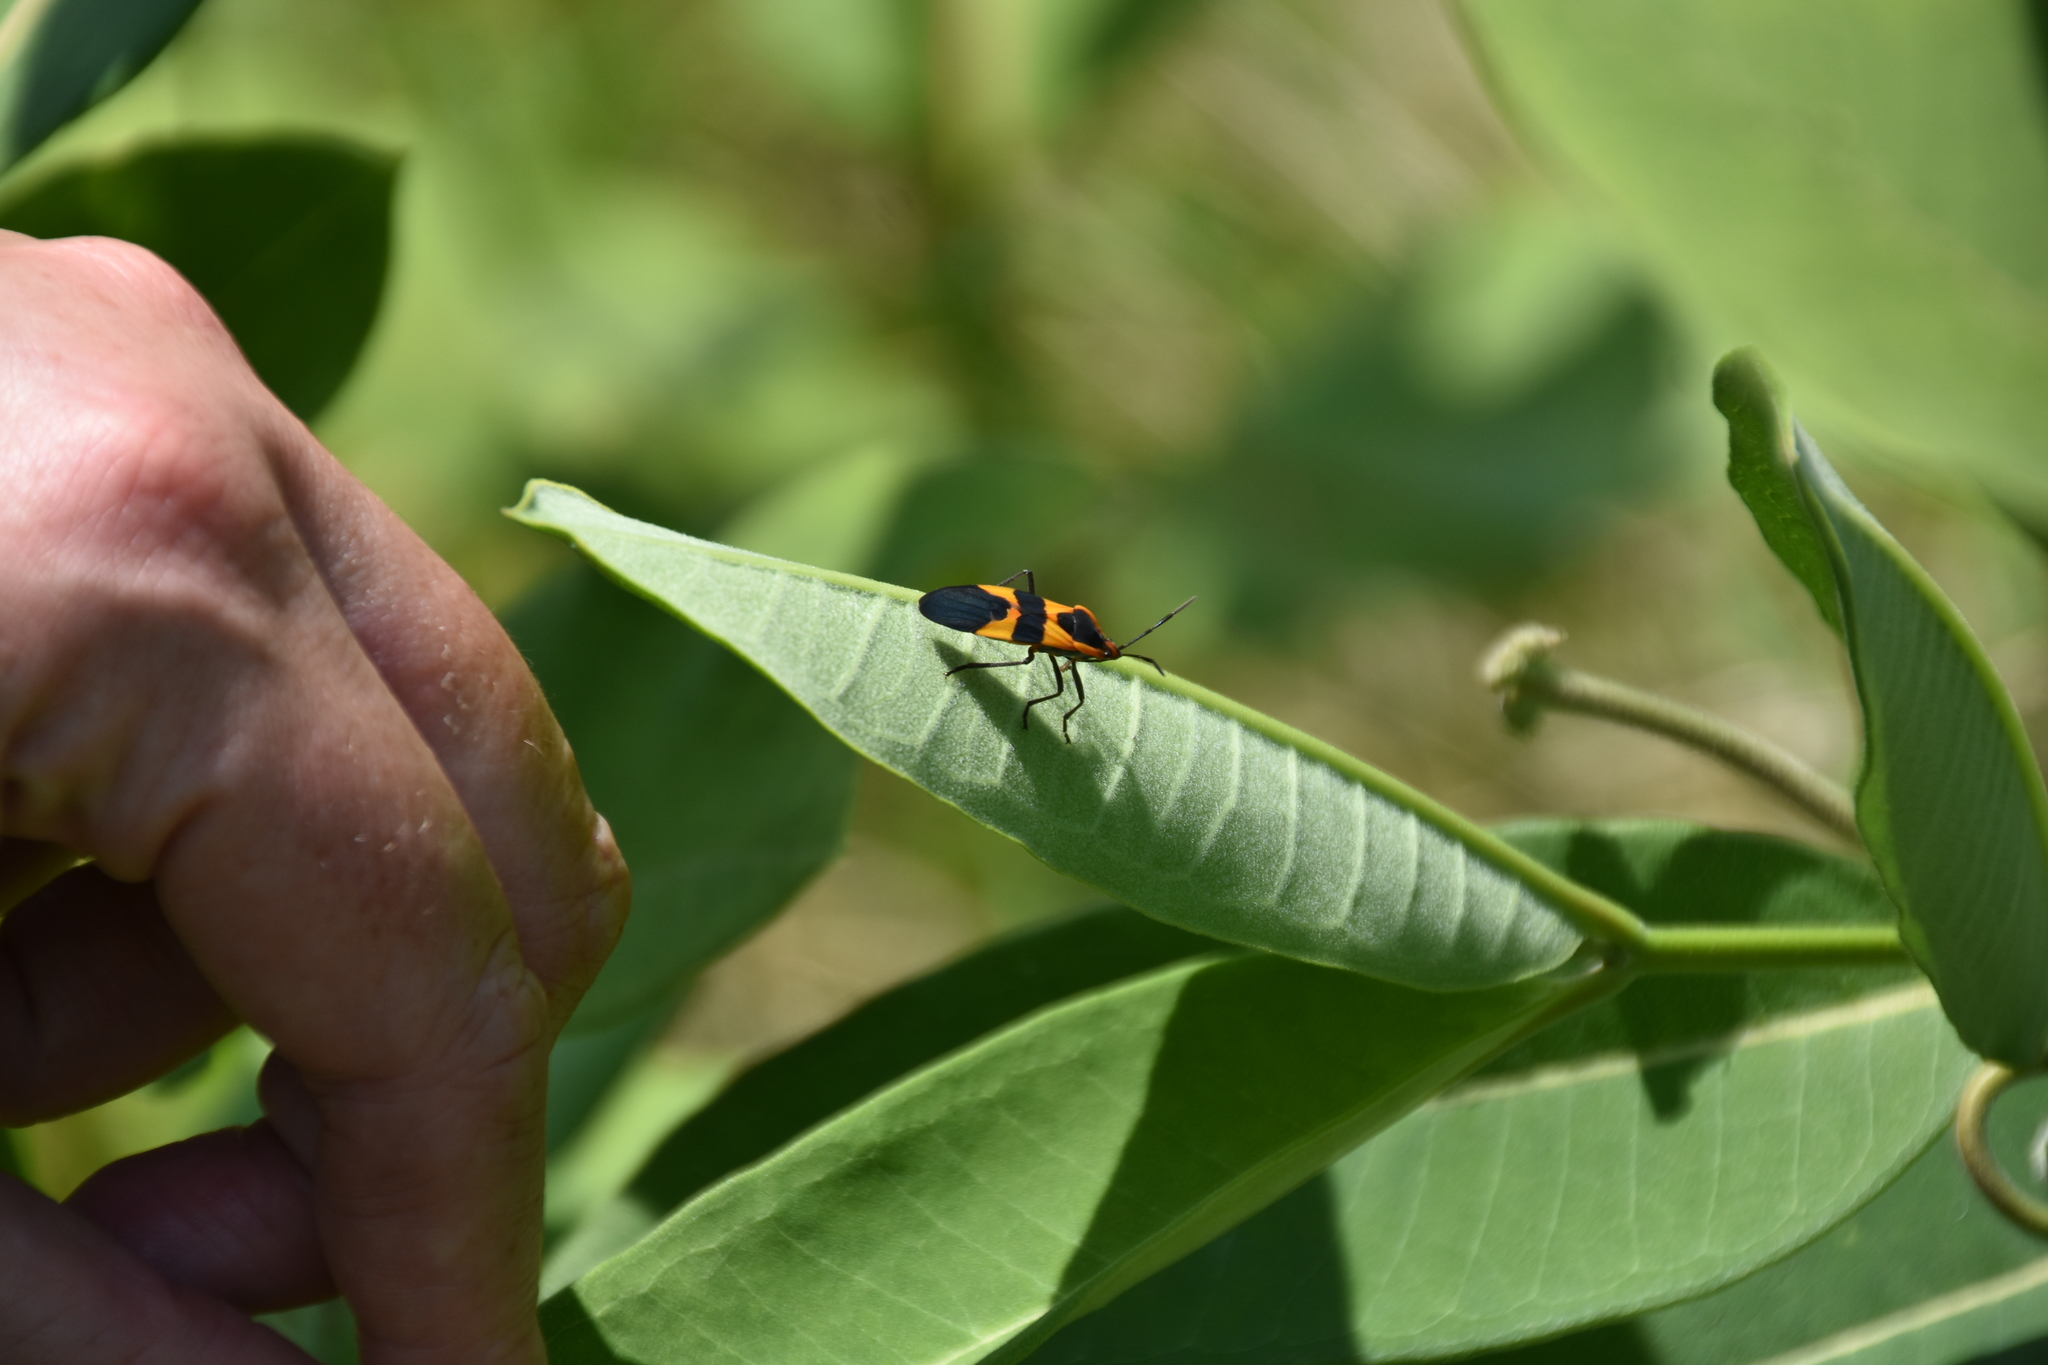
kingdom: Animalia
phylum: Arthropoda
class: Insecta
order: Hemiptera
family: Lygaeidae
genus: Oncopeltus
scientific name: Oncopeltus fasciatus
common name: Large milkweed bug
